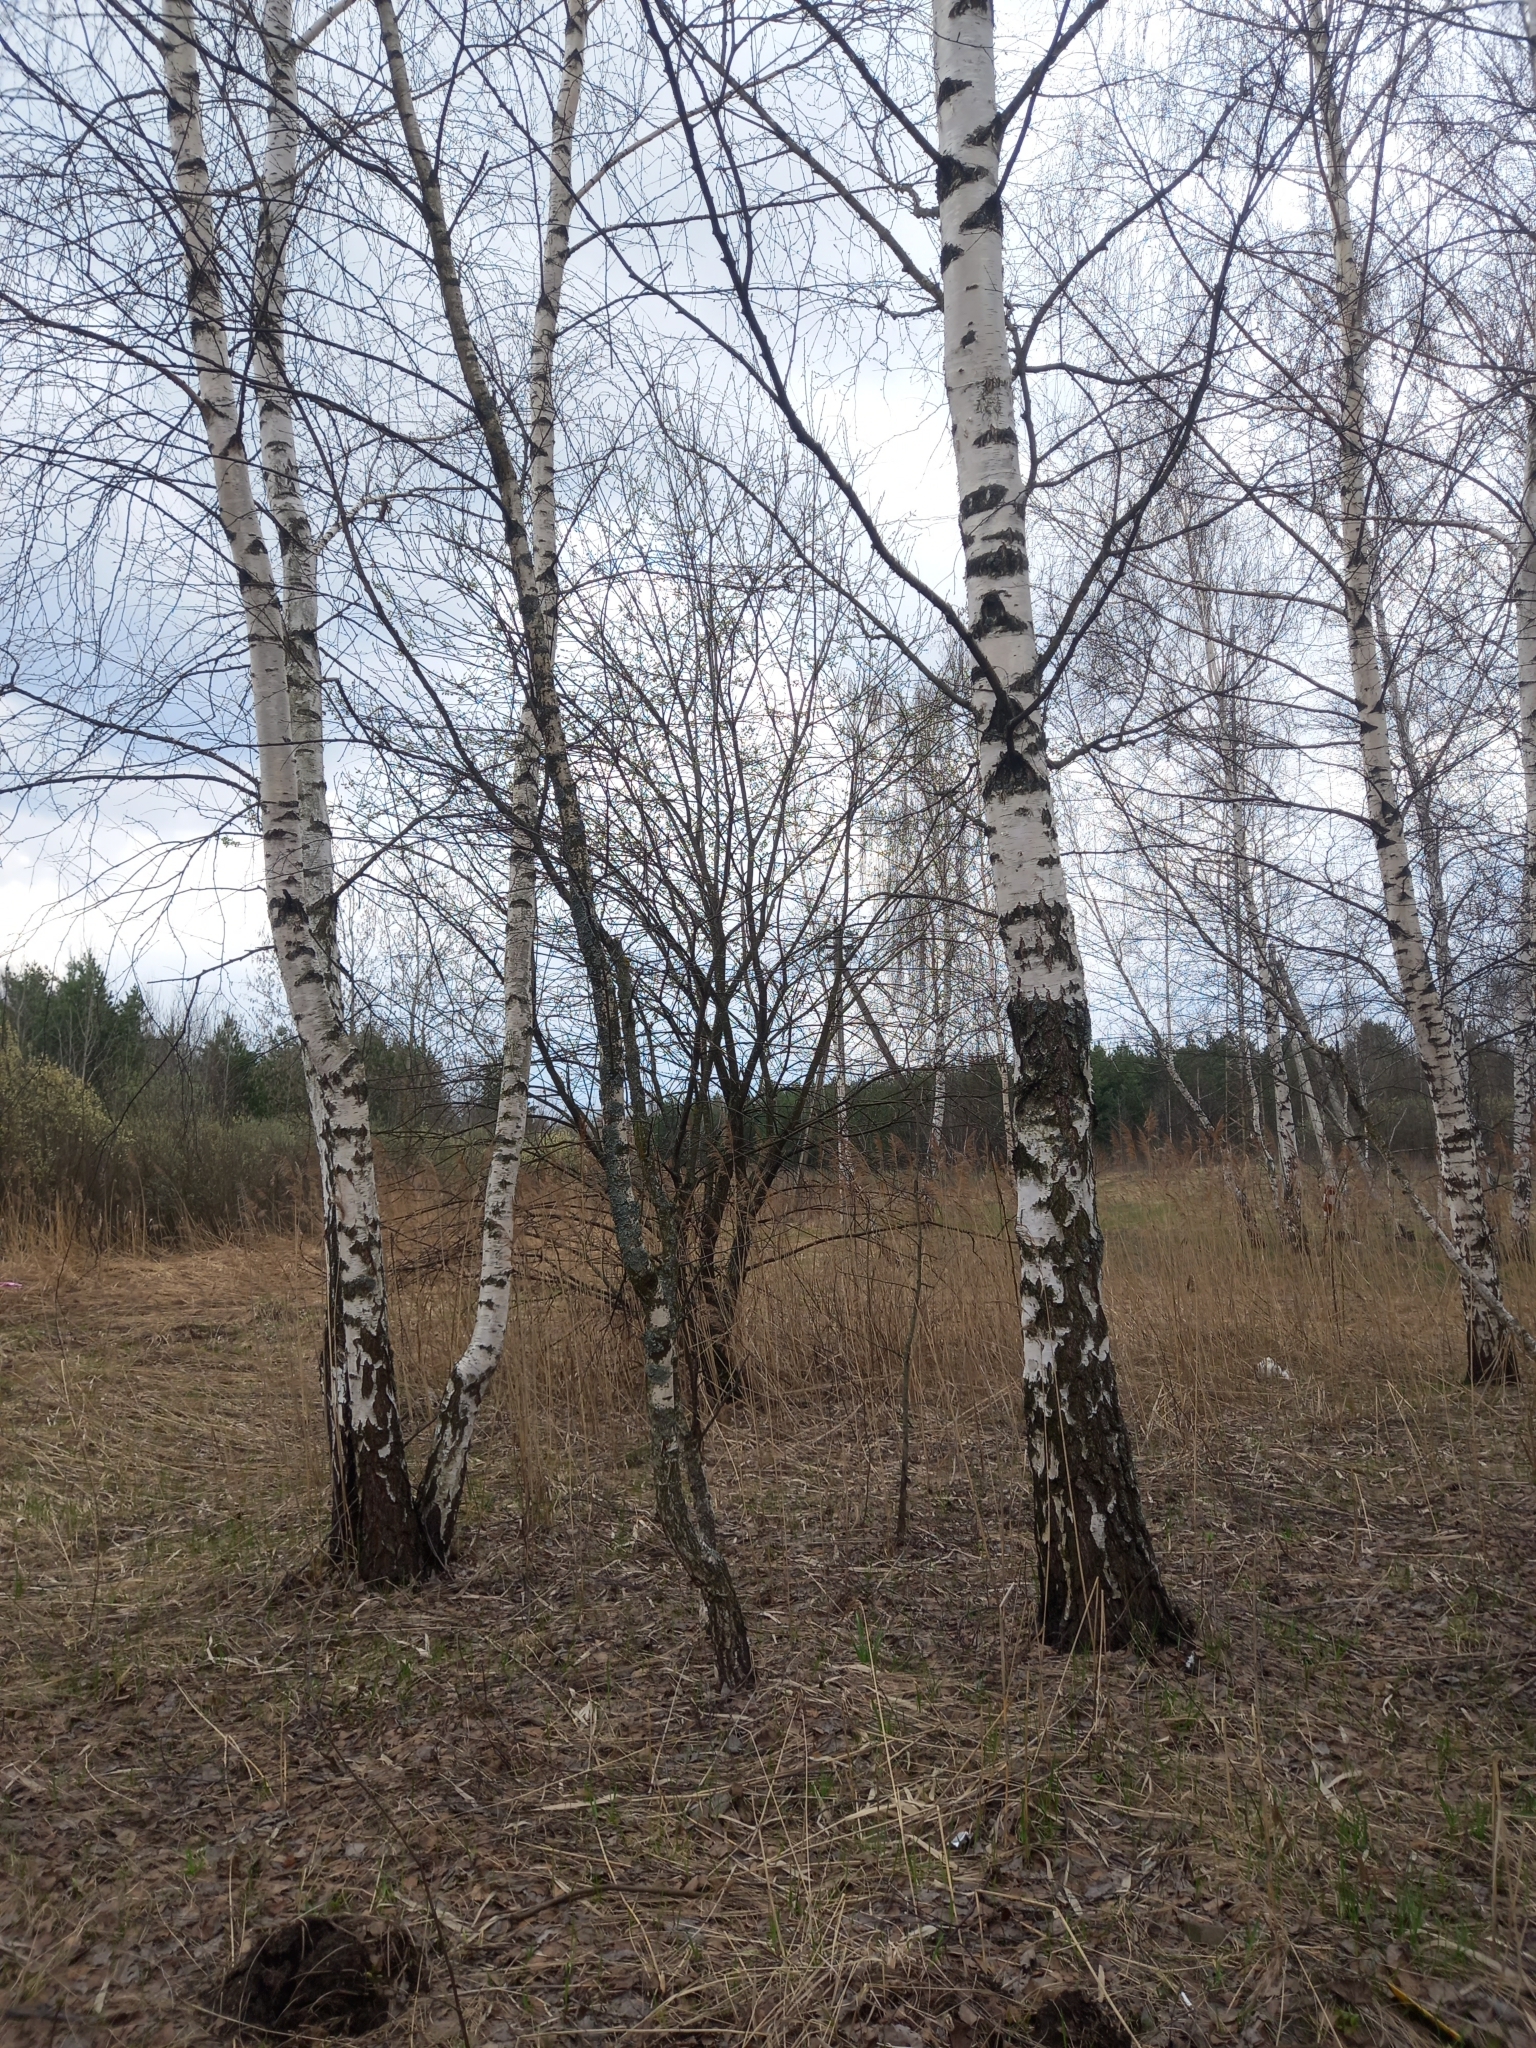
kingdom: Plantae
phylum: Tracheophyta
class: Magnoliopsida
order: Fagales
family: Betulaceae
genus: Betula
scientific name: Betula pendula
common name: Silver birch
